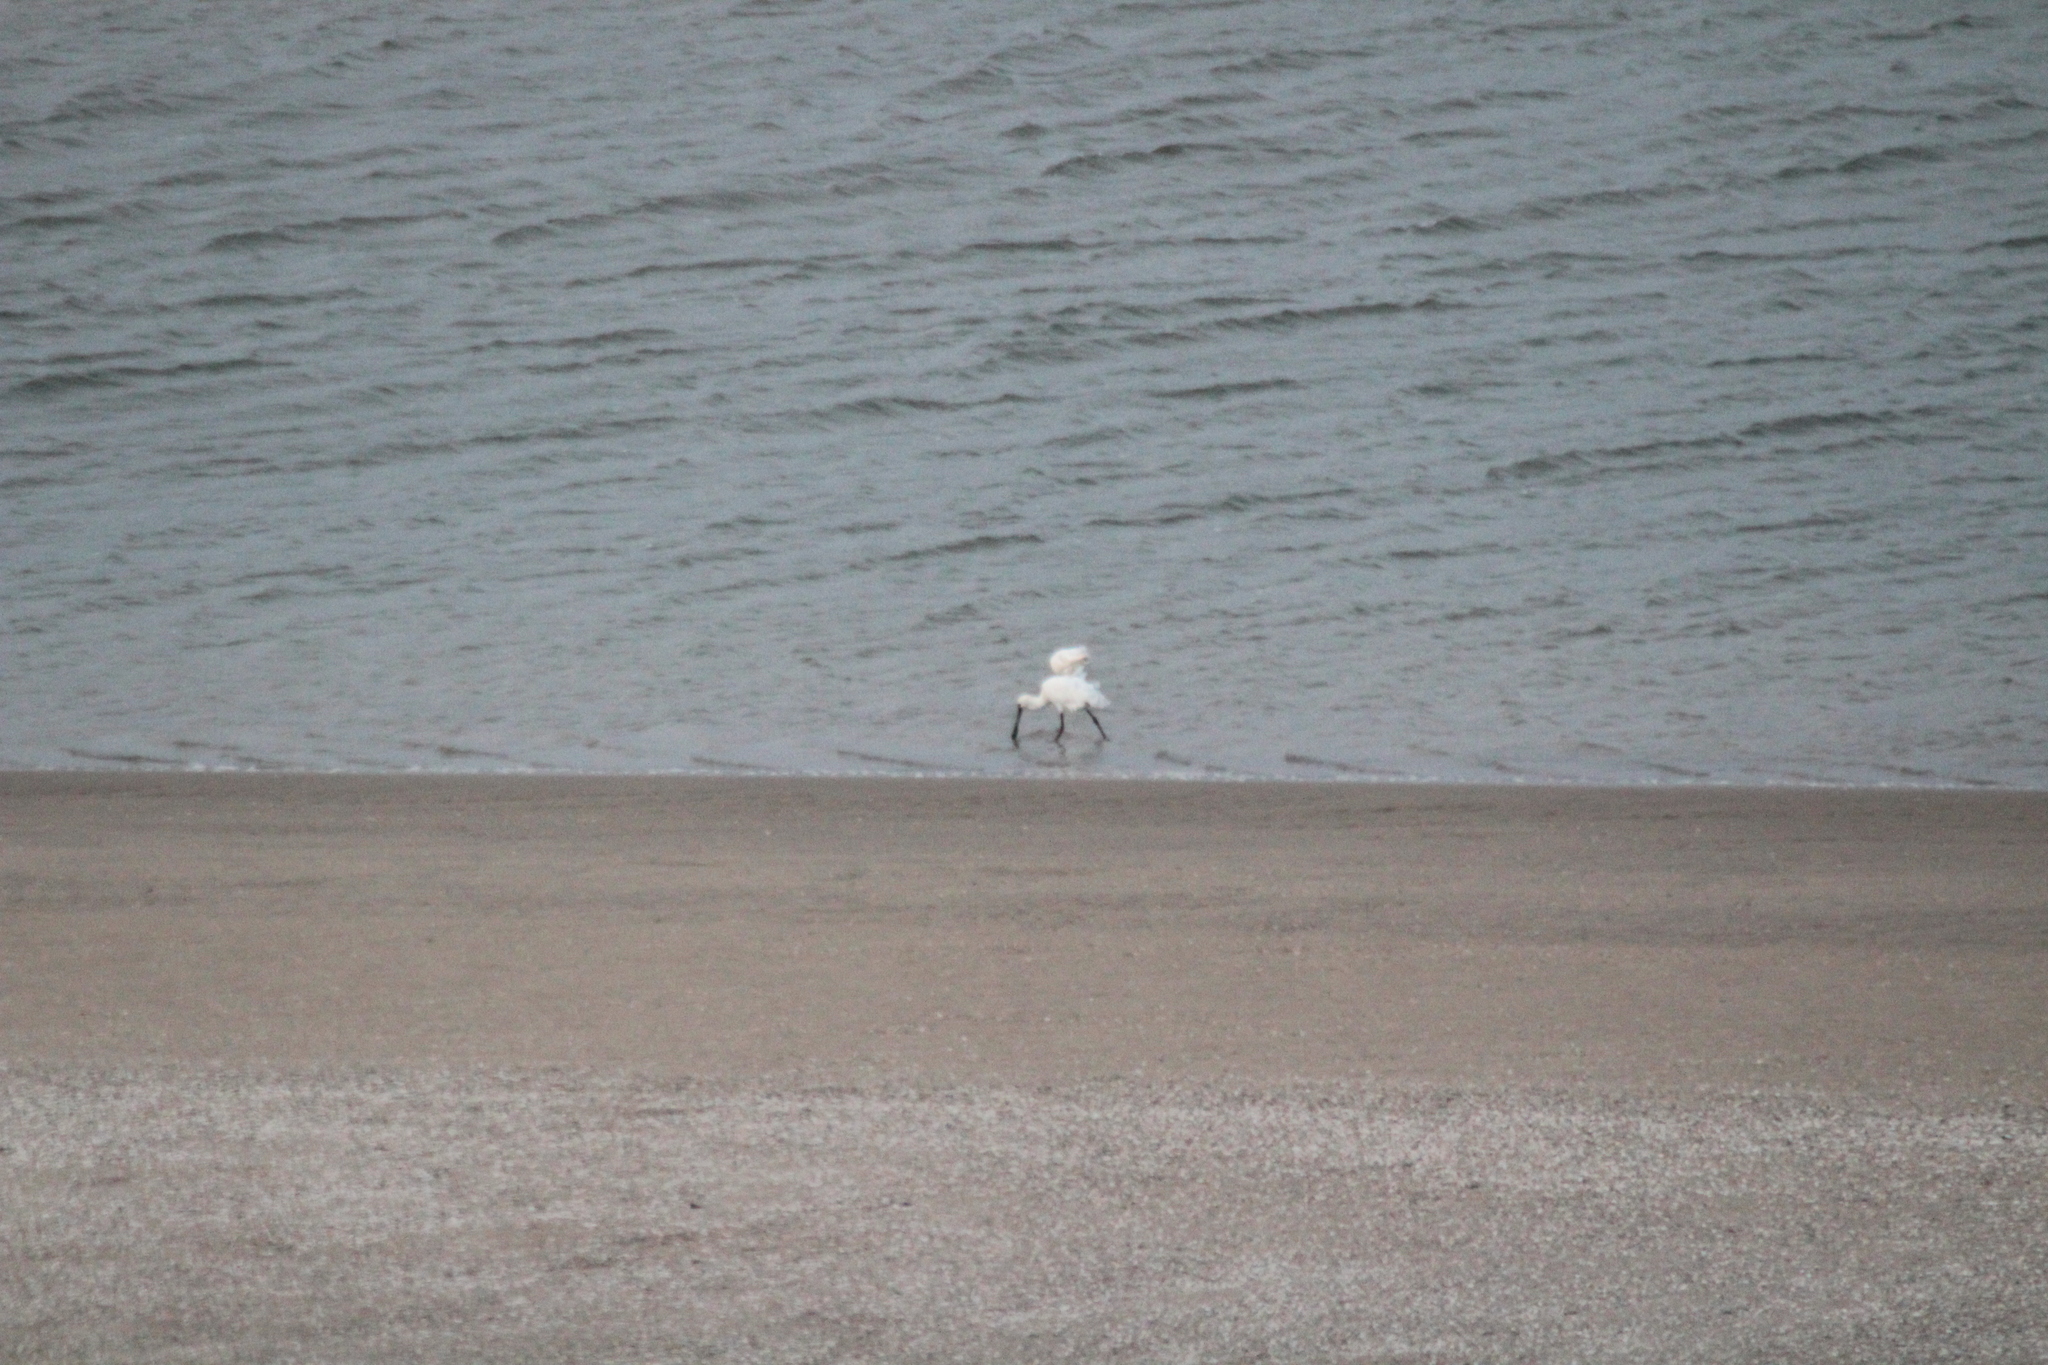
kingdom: Animalia
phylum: Chordata
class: Aves
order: Pelecaniformes
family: Threskiornithidae
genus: Platalea
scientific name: Platalea leucorodia
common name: Eurasian spoonbill
